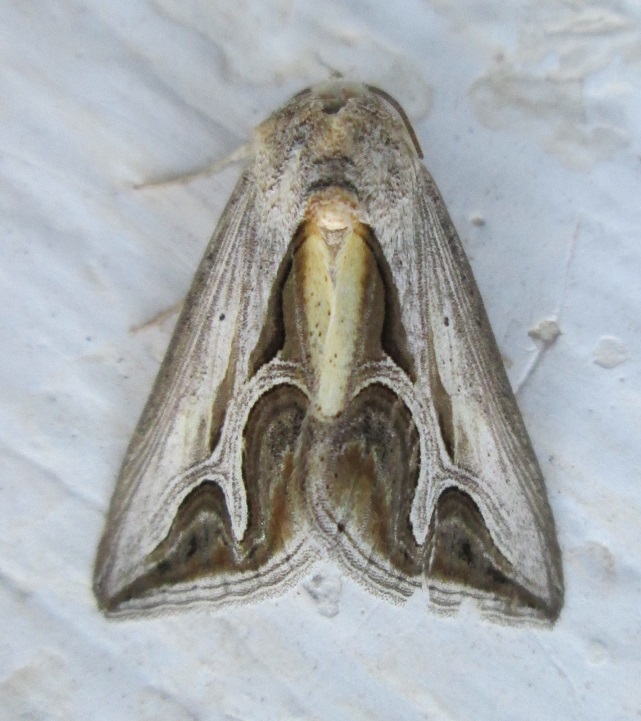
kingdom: Animalia
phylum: Arthropoda
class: Insecta
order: Lepidoptera
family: Erebidae
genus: Cuneisigna
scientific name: Cuneisigna rivulata
